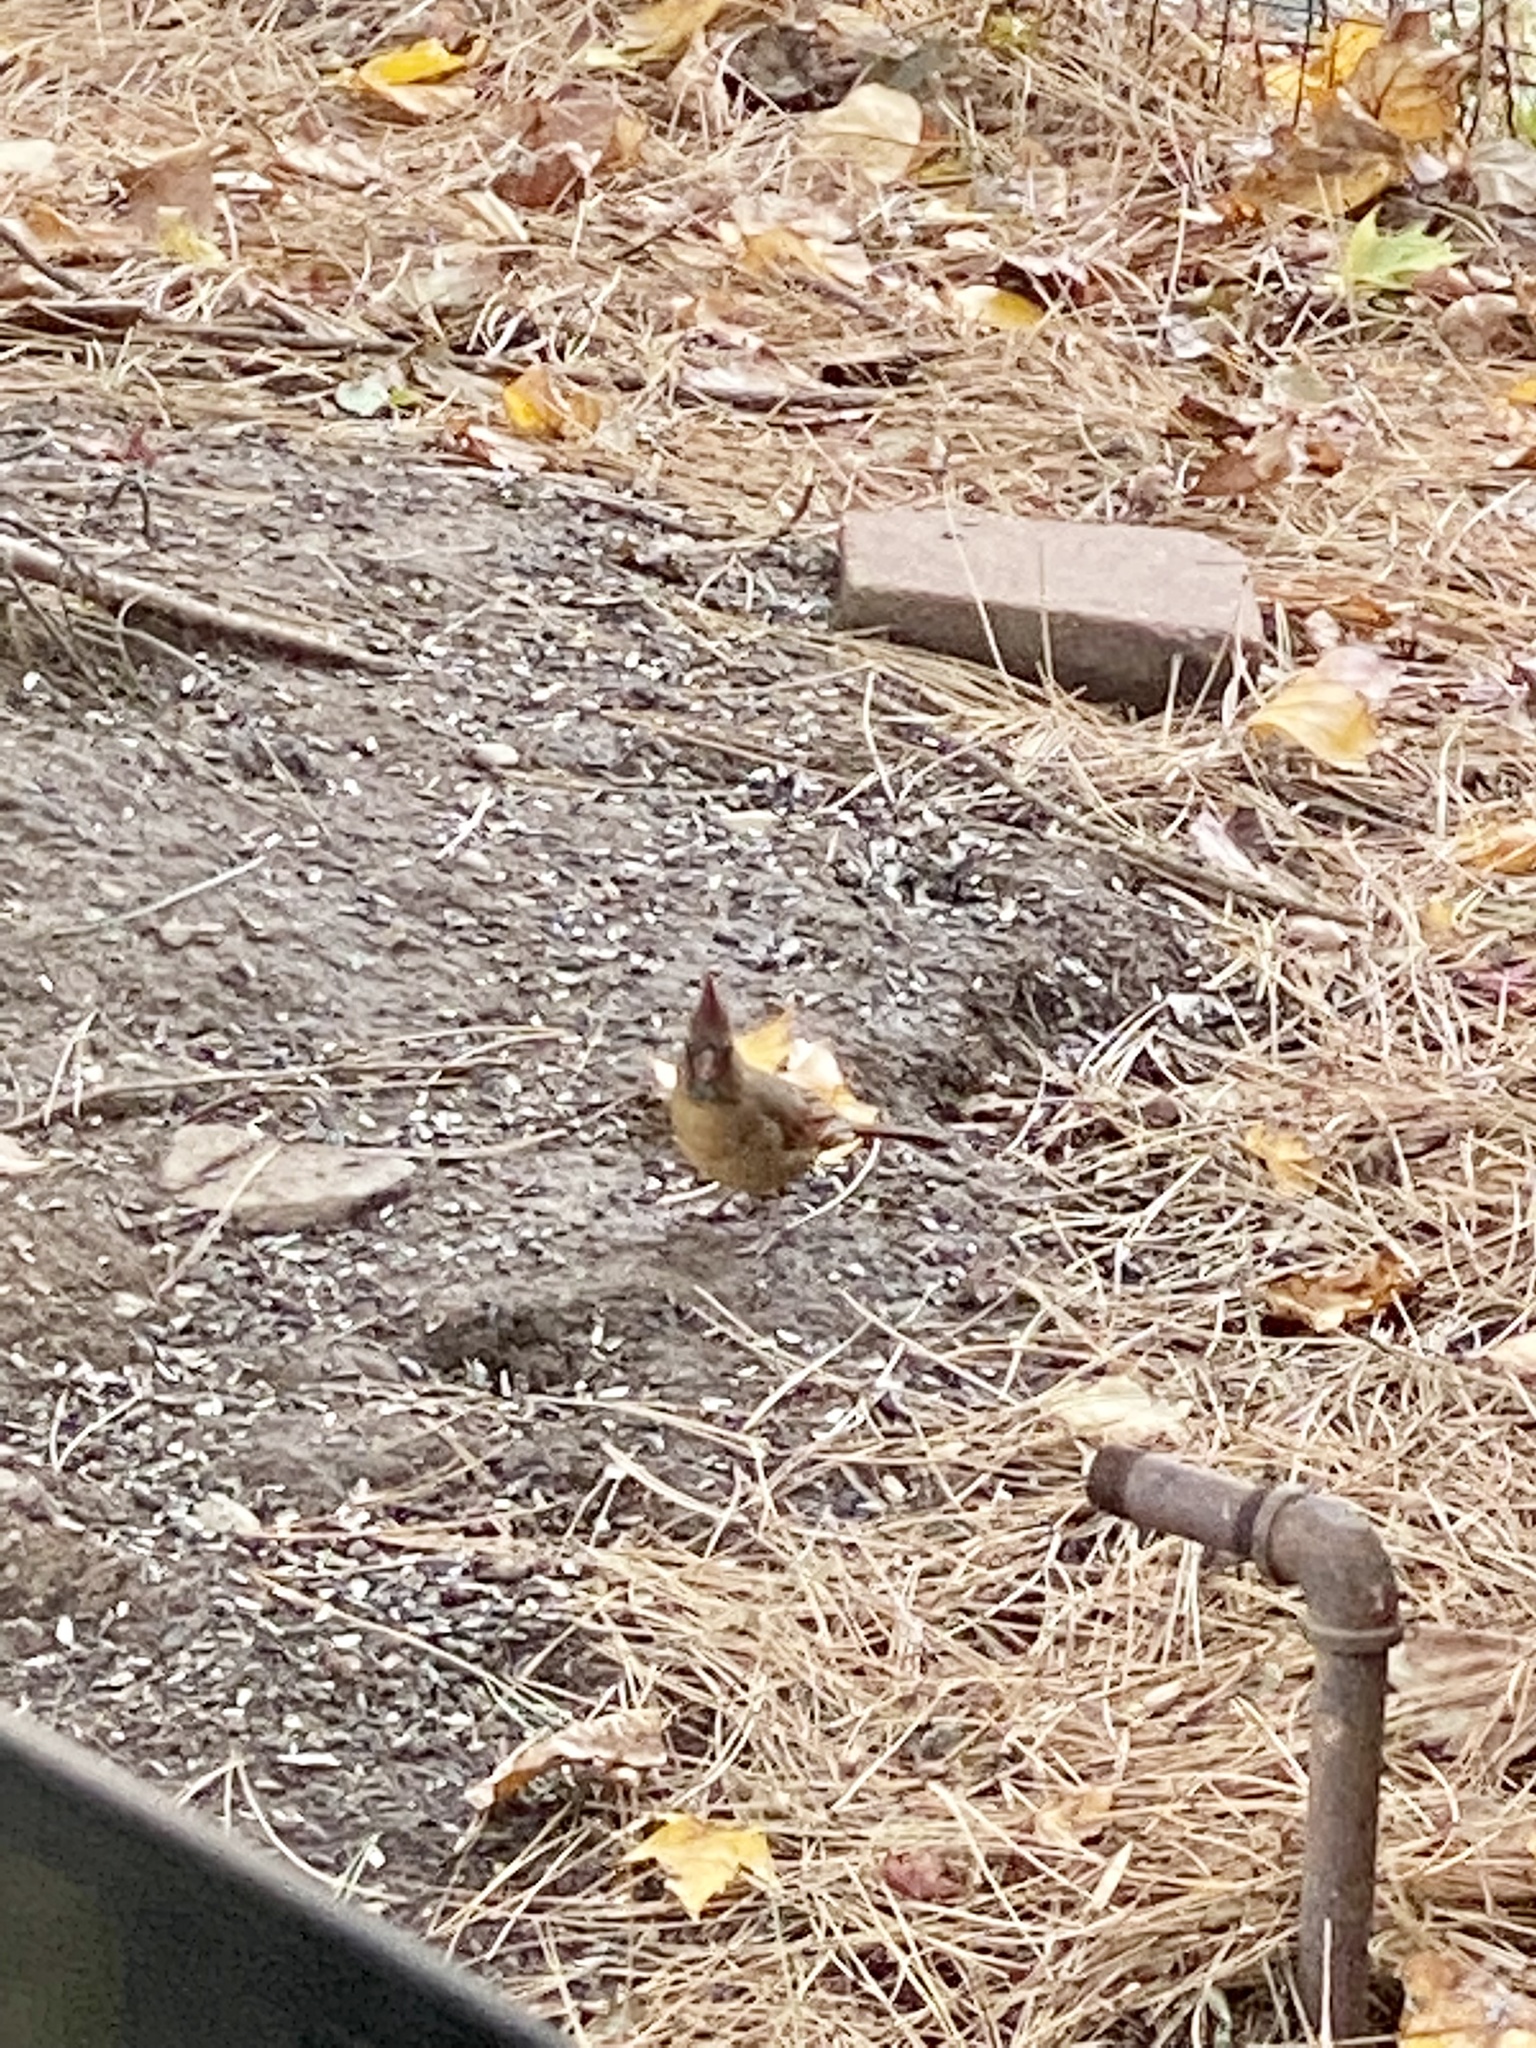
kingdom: Animalia
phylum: Chordata
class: Aves
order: Passeriformes
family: Cardinalidae
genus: Cardinalis
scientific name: Cardinalis cardinalis
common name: Northern cardinal
